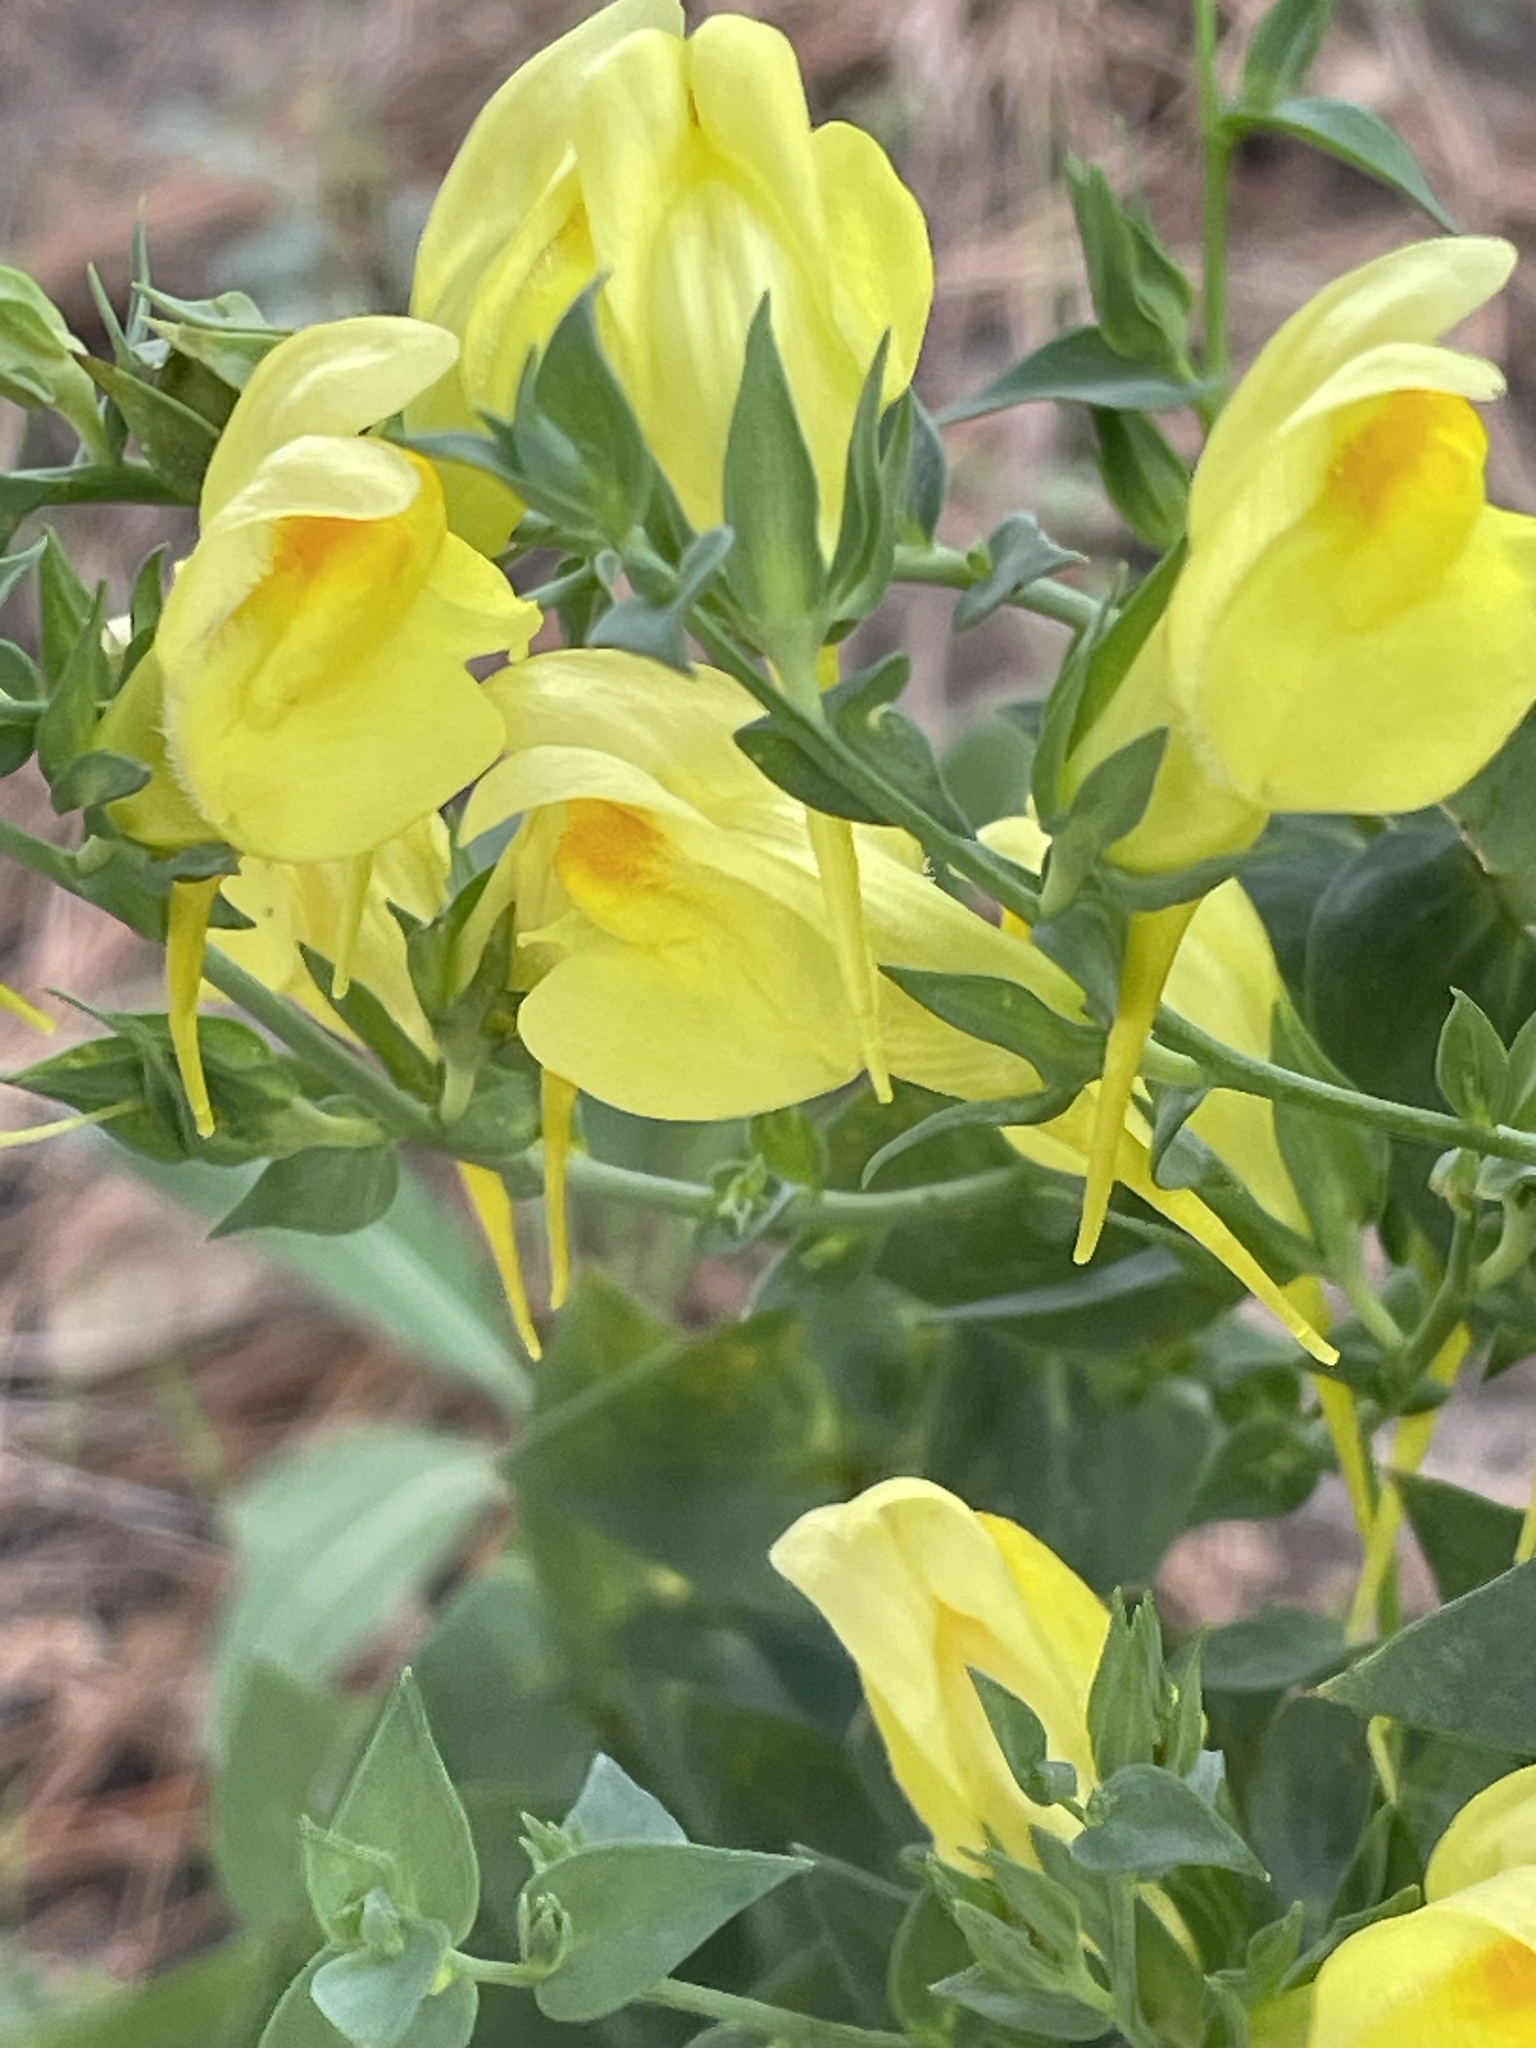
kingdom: Plantae
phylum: Tracheophyta
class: Magnoliopsida
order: Lamiales
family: Plantaginaceae
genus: Linaria
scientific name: Linaria dalmatica
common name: Dalmatian toadflax
